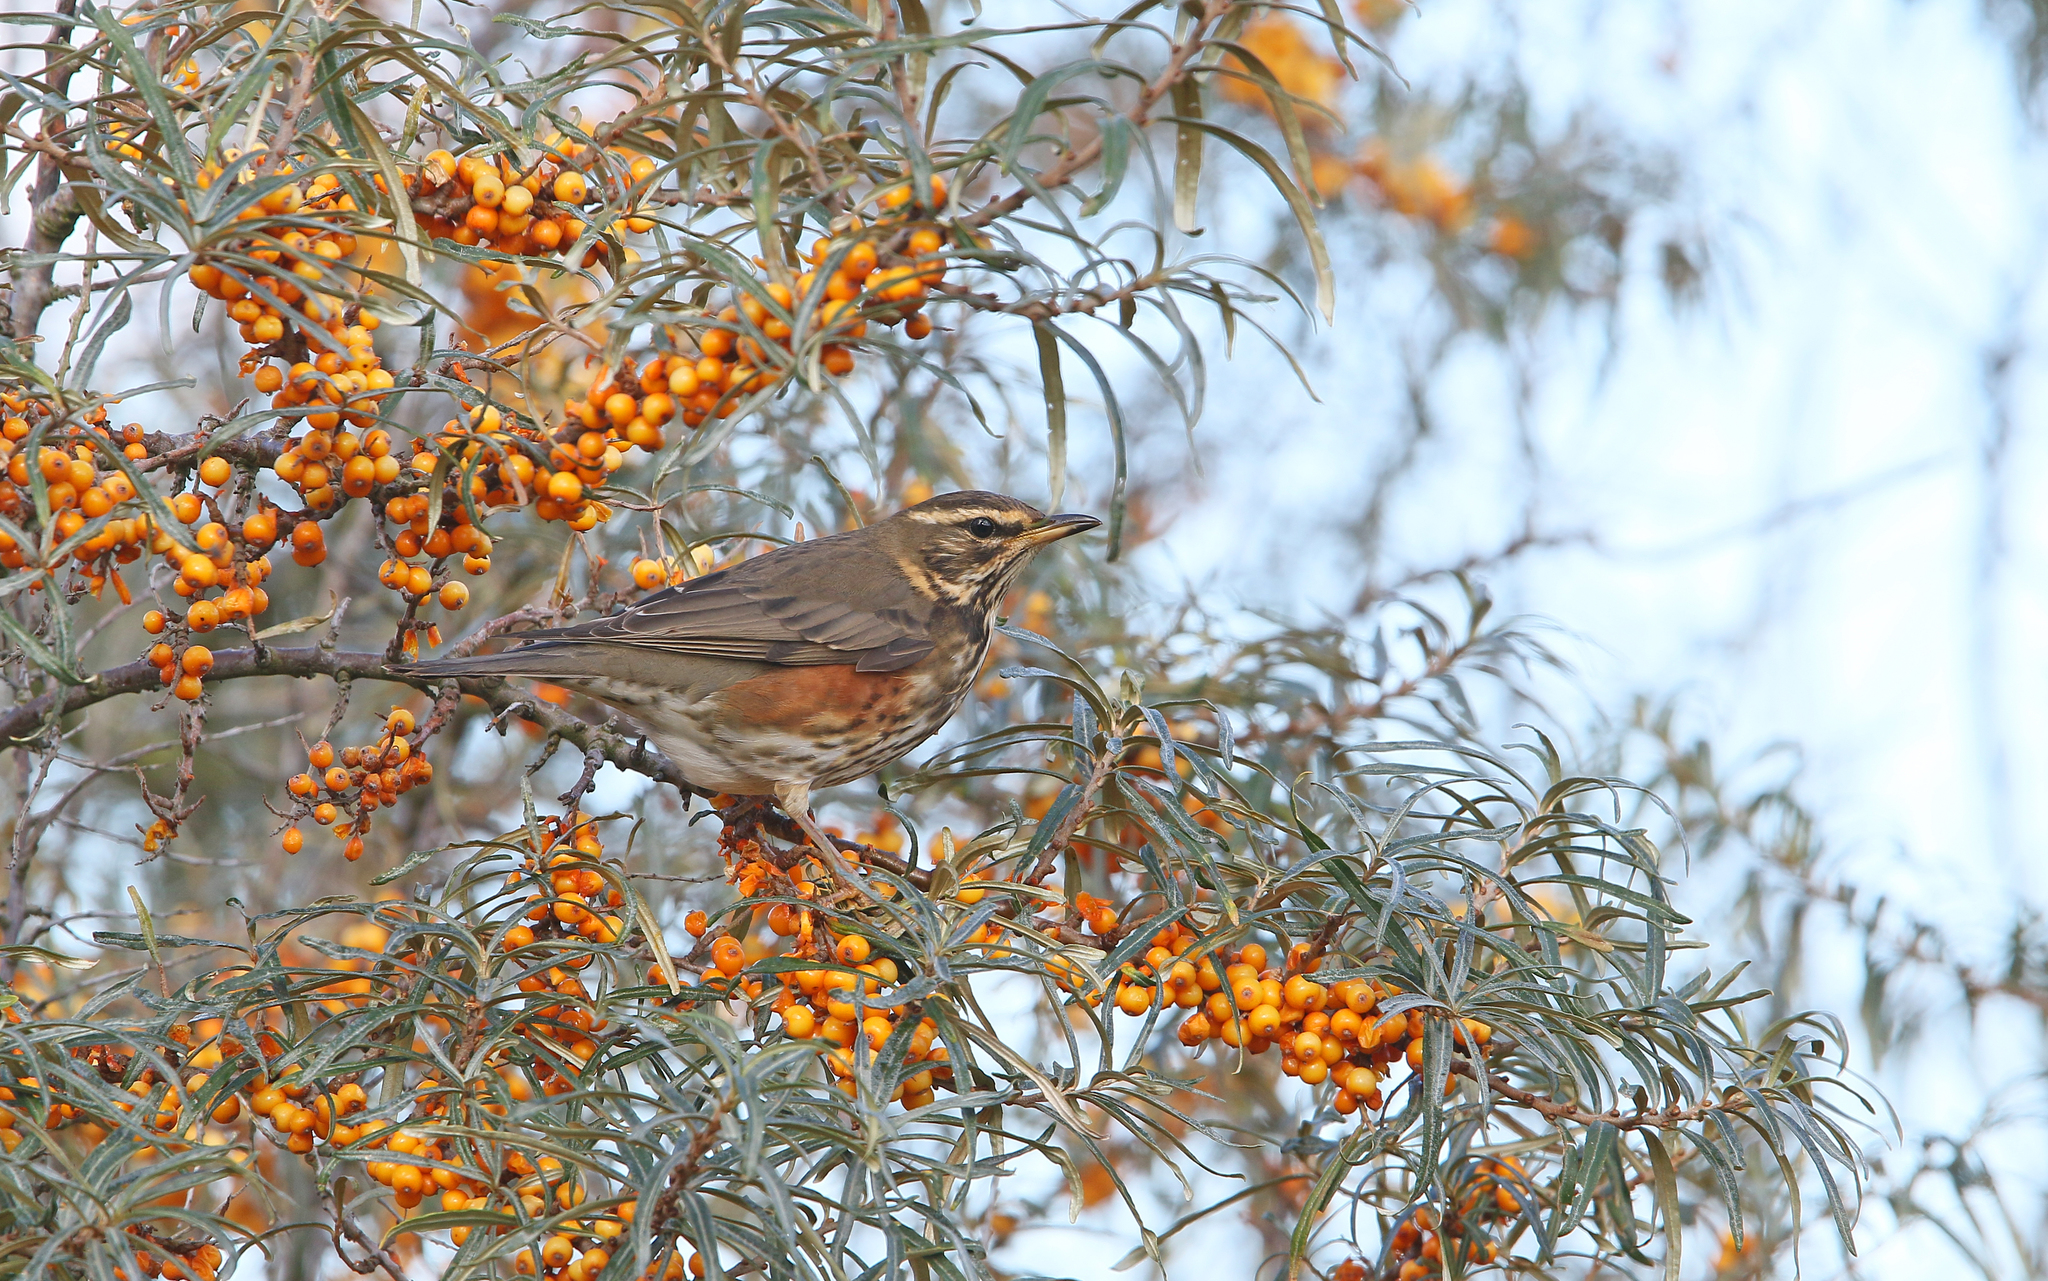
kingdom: Animalia
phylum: Chordata
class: Aves
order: Passeriformes
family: Turdidae
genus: Turdus
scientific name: Turdus iliacus
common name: Redwing
